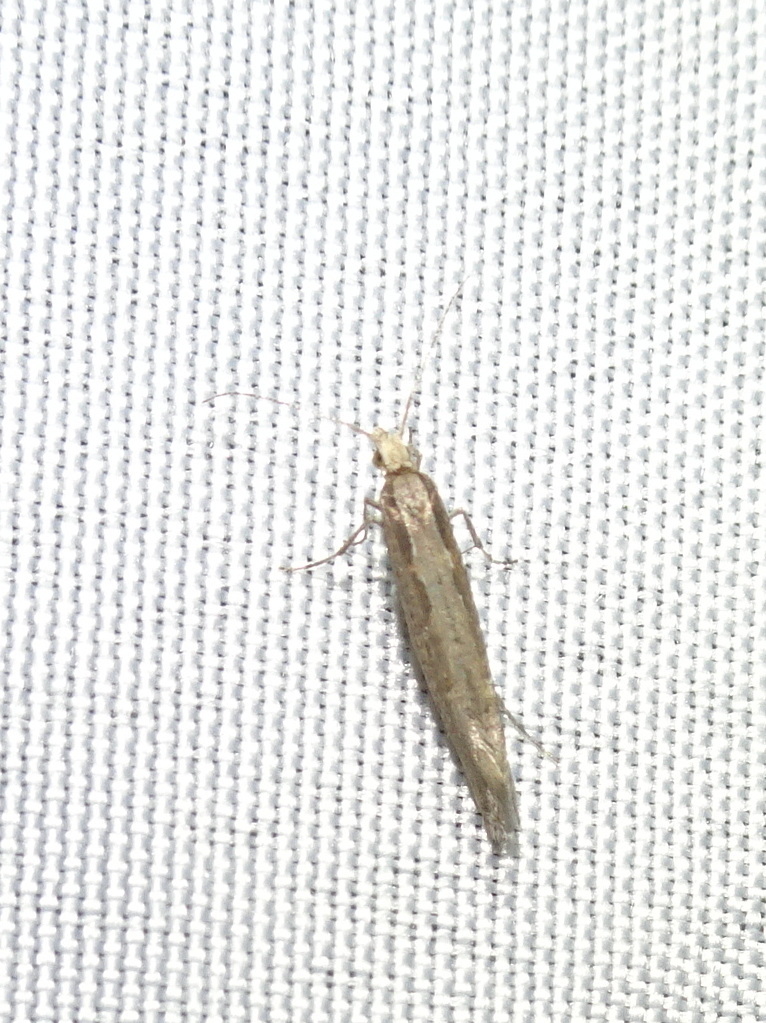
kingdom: Animalia
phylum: Arthropoda
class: Insecta
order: Lepidoptera
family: Plutellidae
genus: Plutella
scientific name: Plutella xylostella
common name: Diamond-back moth
